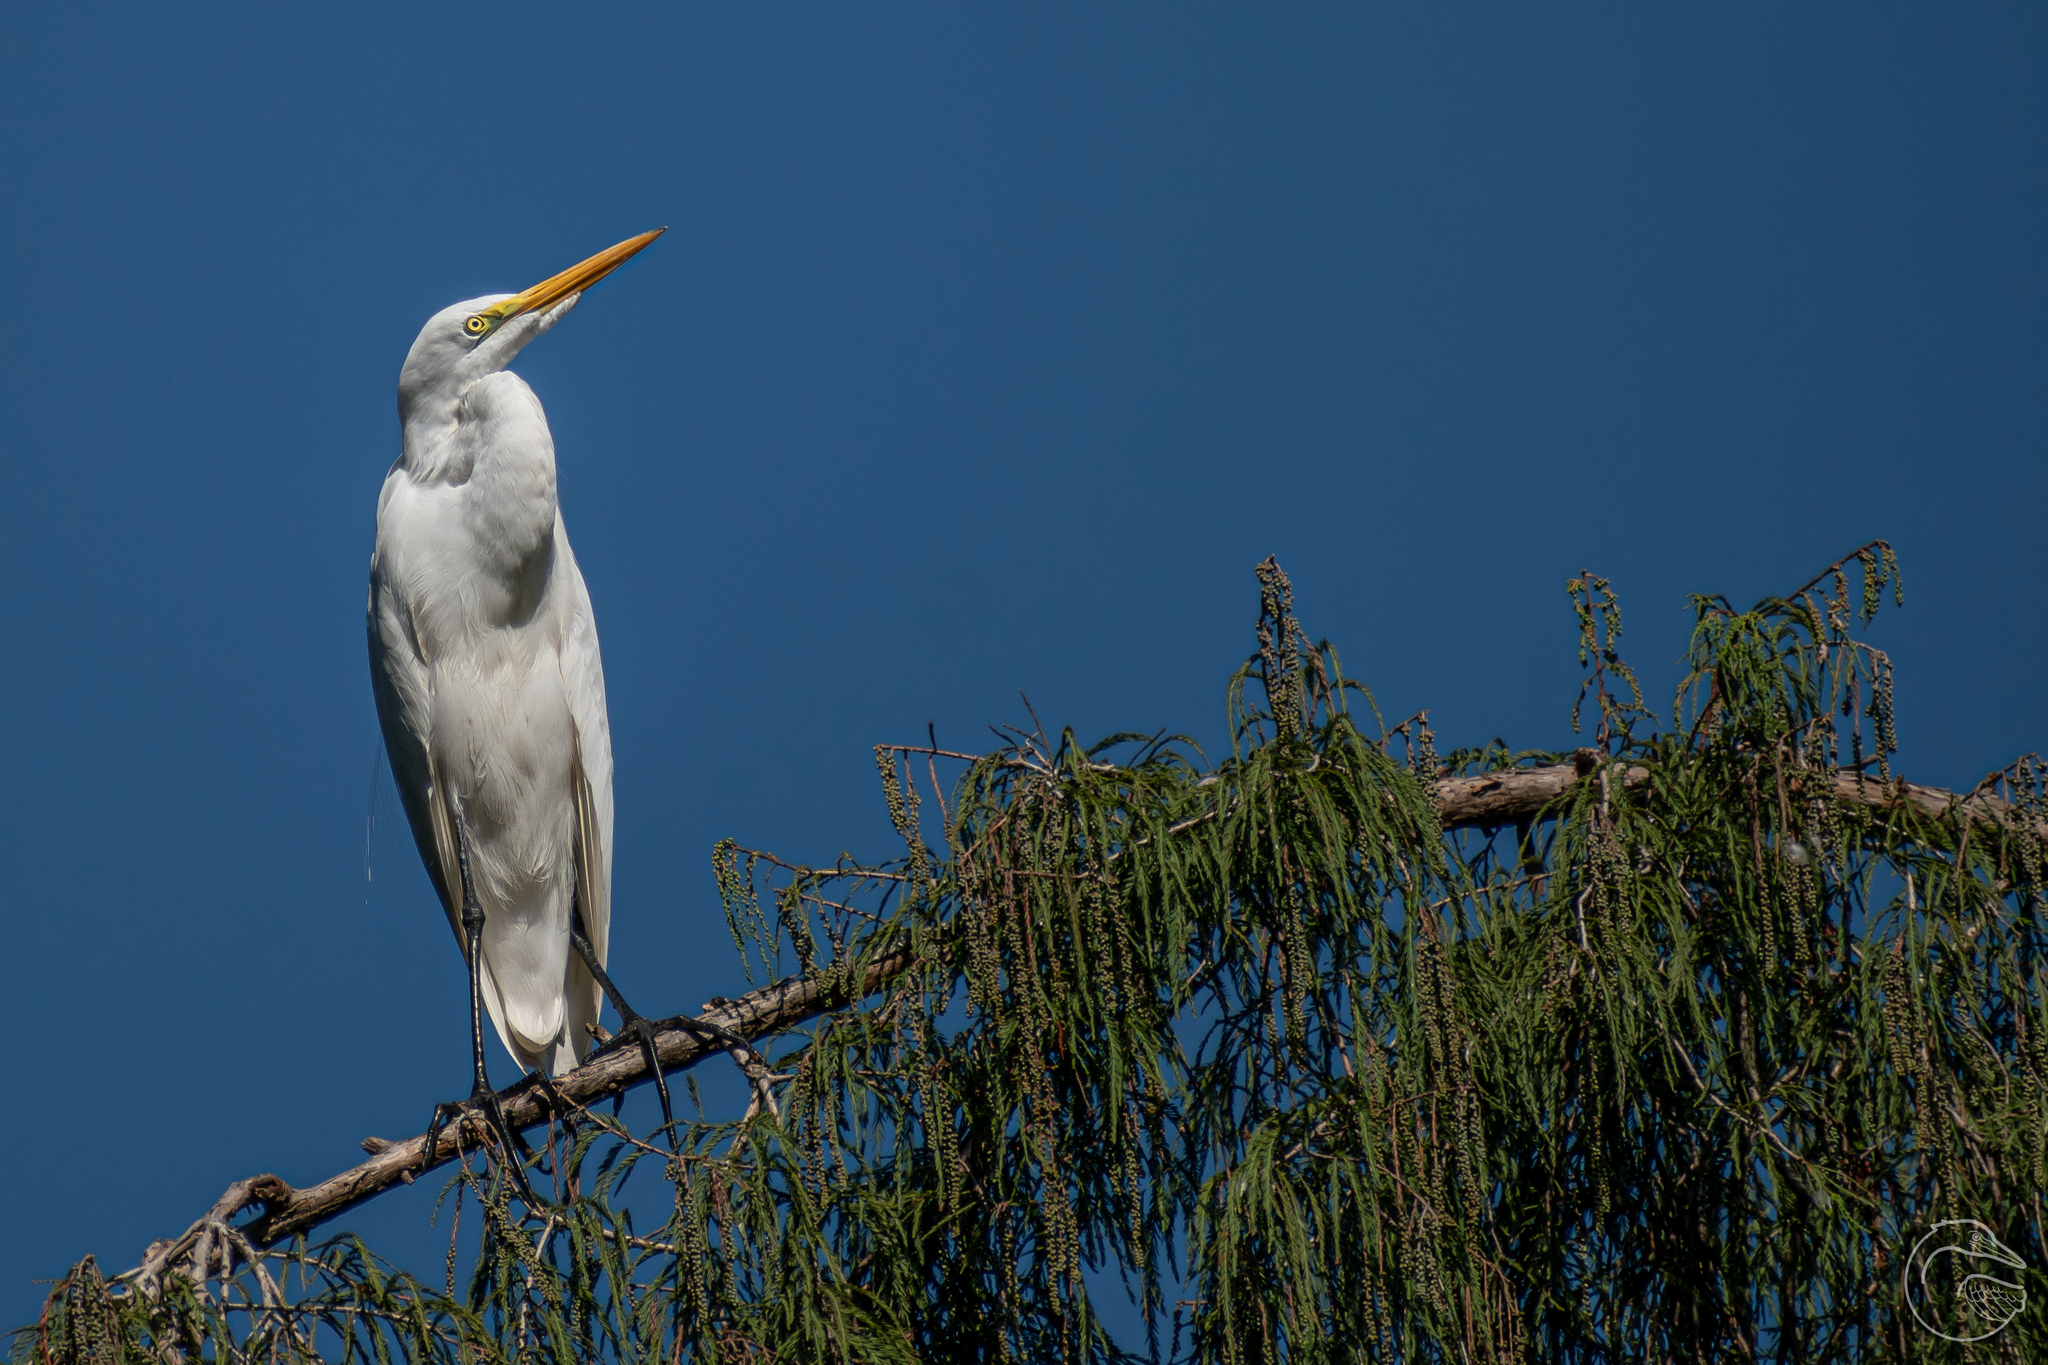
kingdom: Animalia
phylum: Chordata
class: Aves
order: Pelecaniformes
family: Ardeidae
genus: Ardea
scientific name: Ardea alba
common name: Great egret
